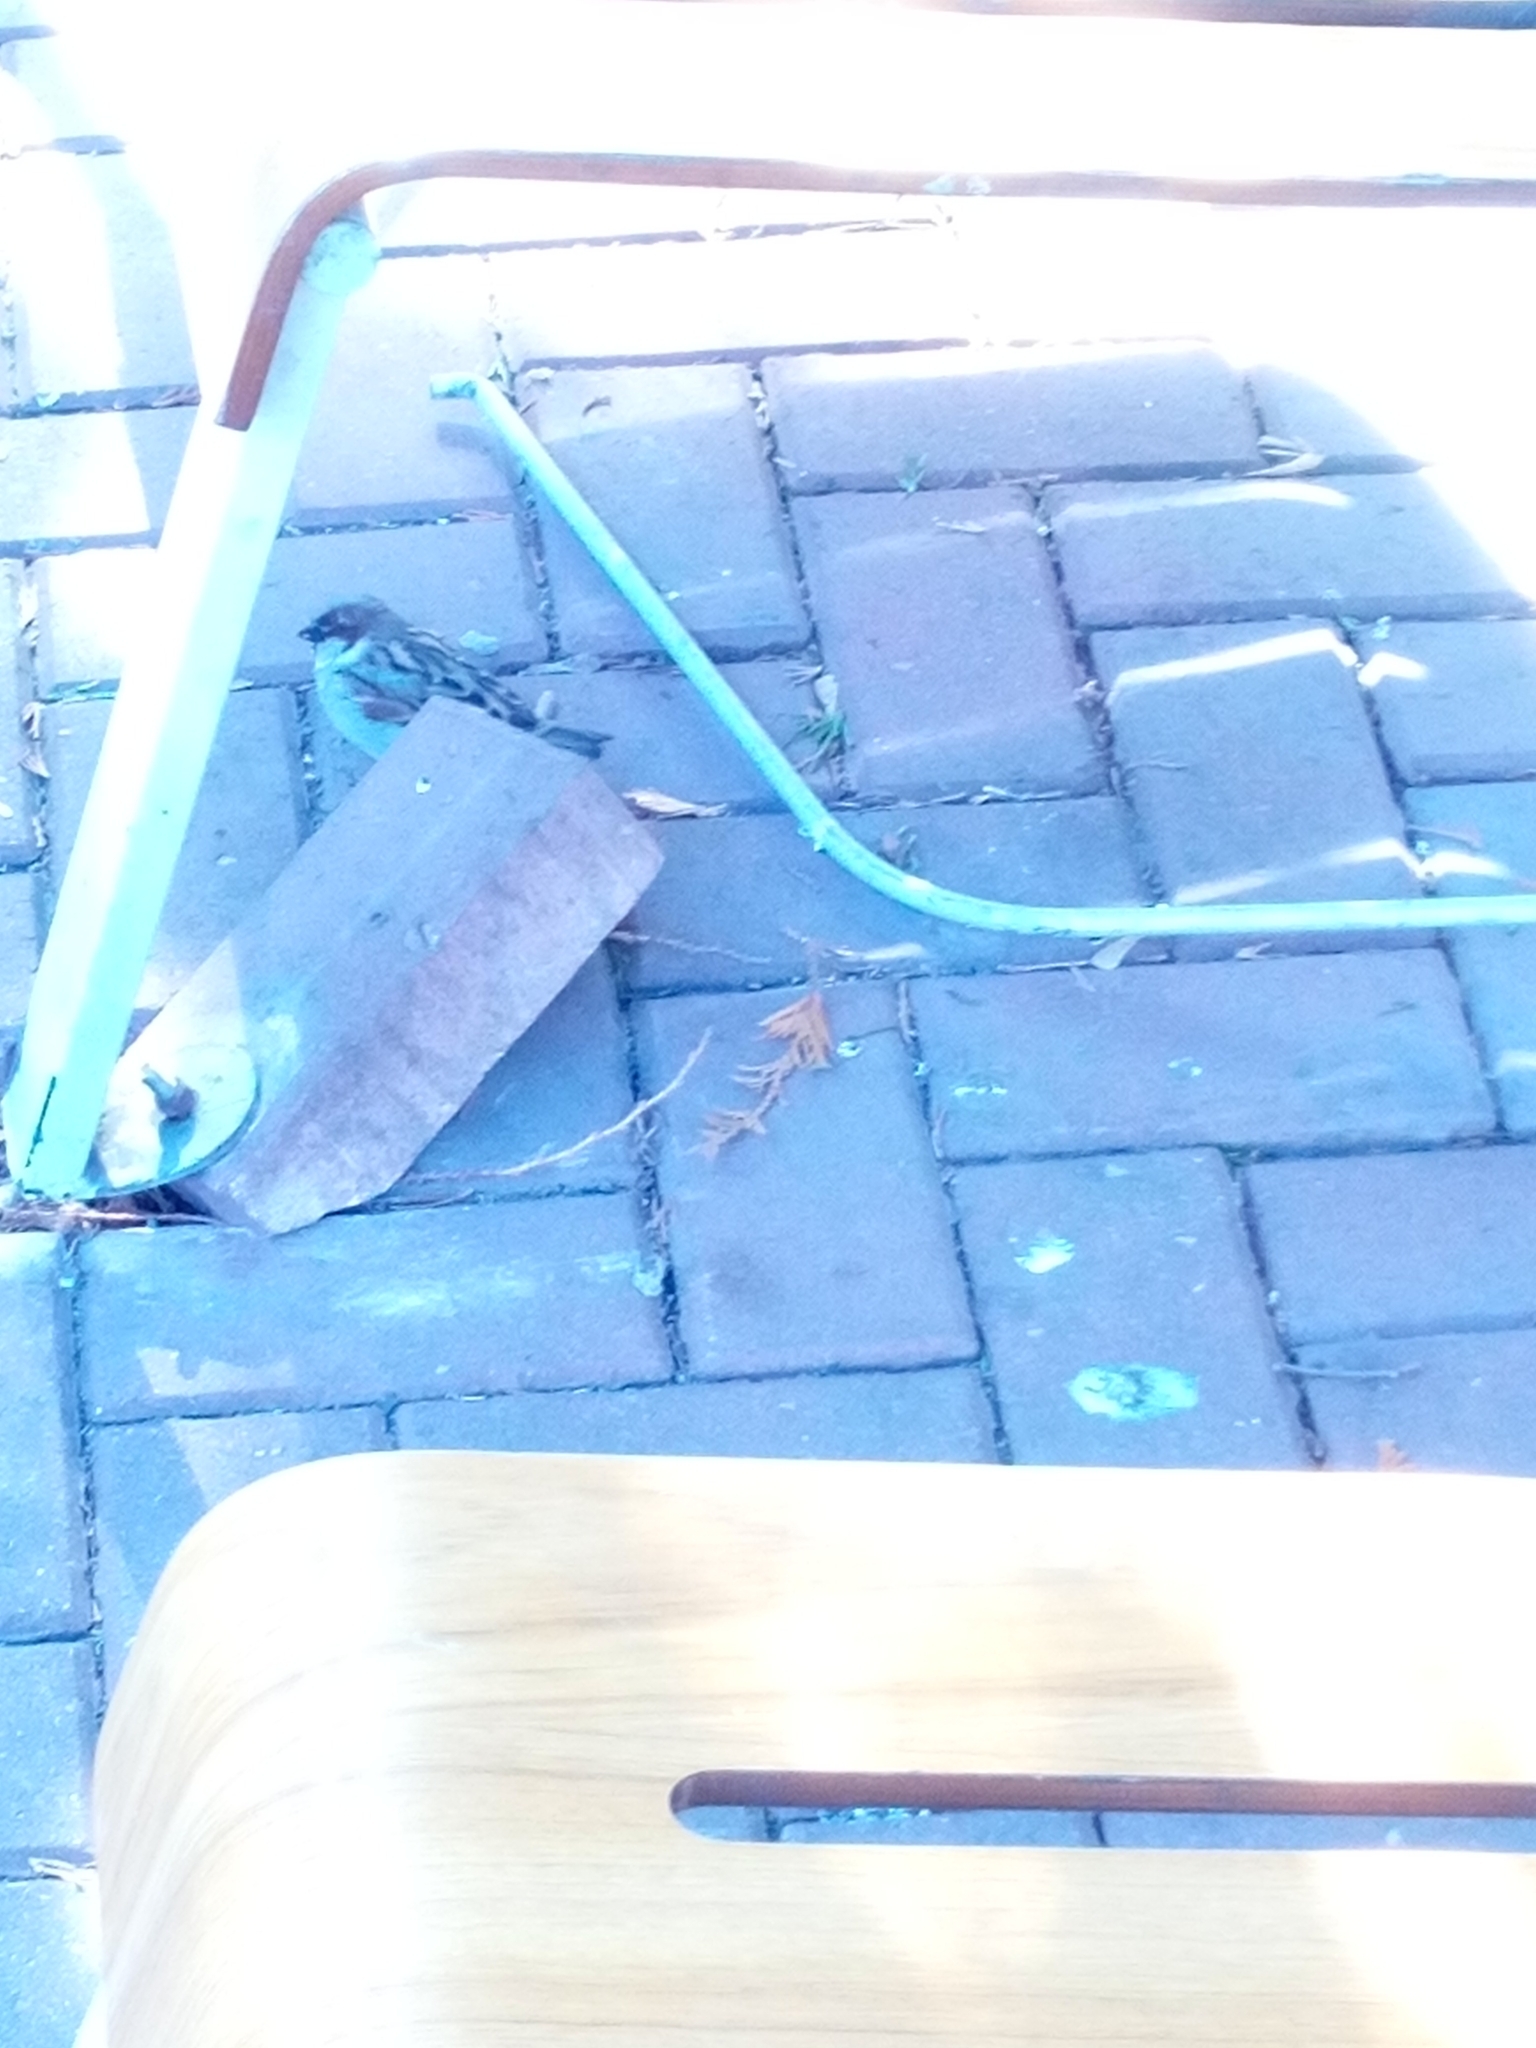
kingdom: Animalia
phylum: Chordata
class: Aves
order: Passeriformes
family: Passeridae
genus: Passer
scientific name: Passer domesticus
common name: House sparrow
